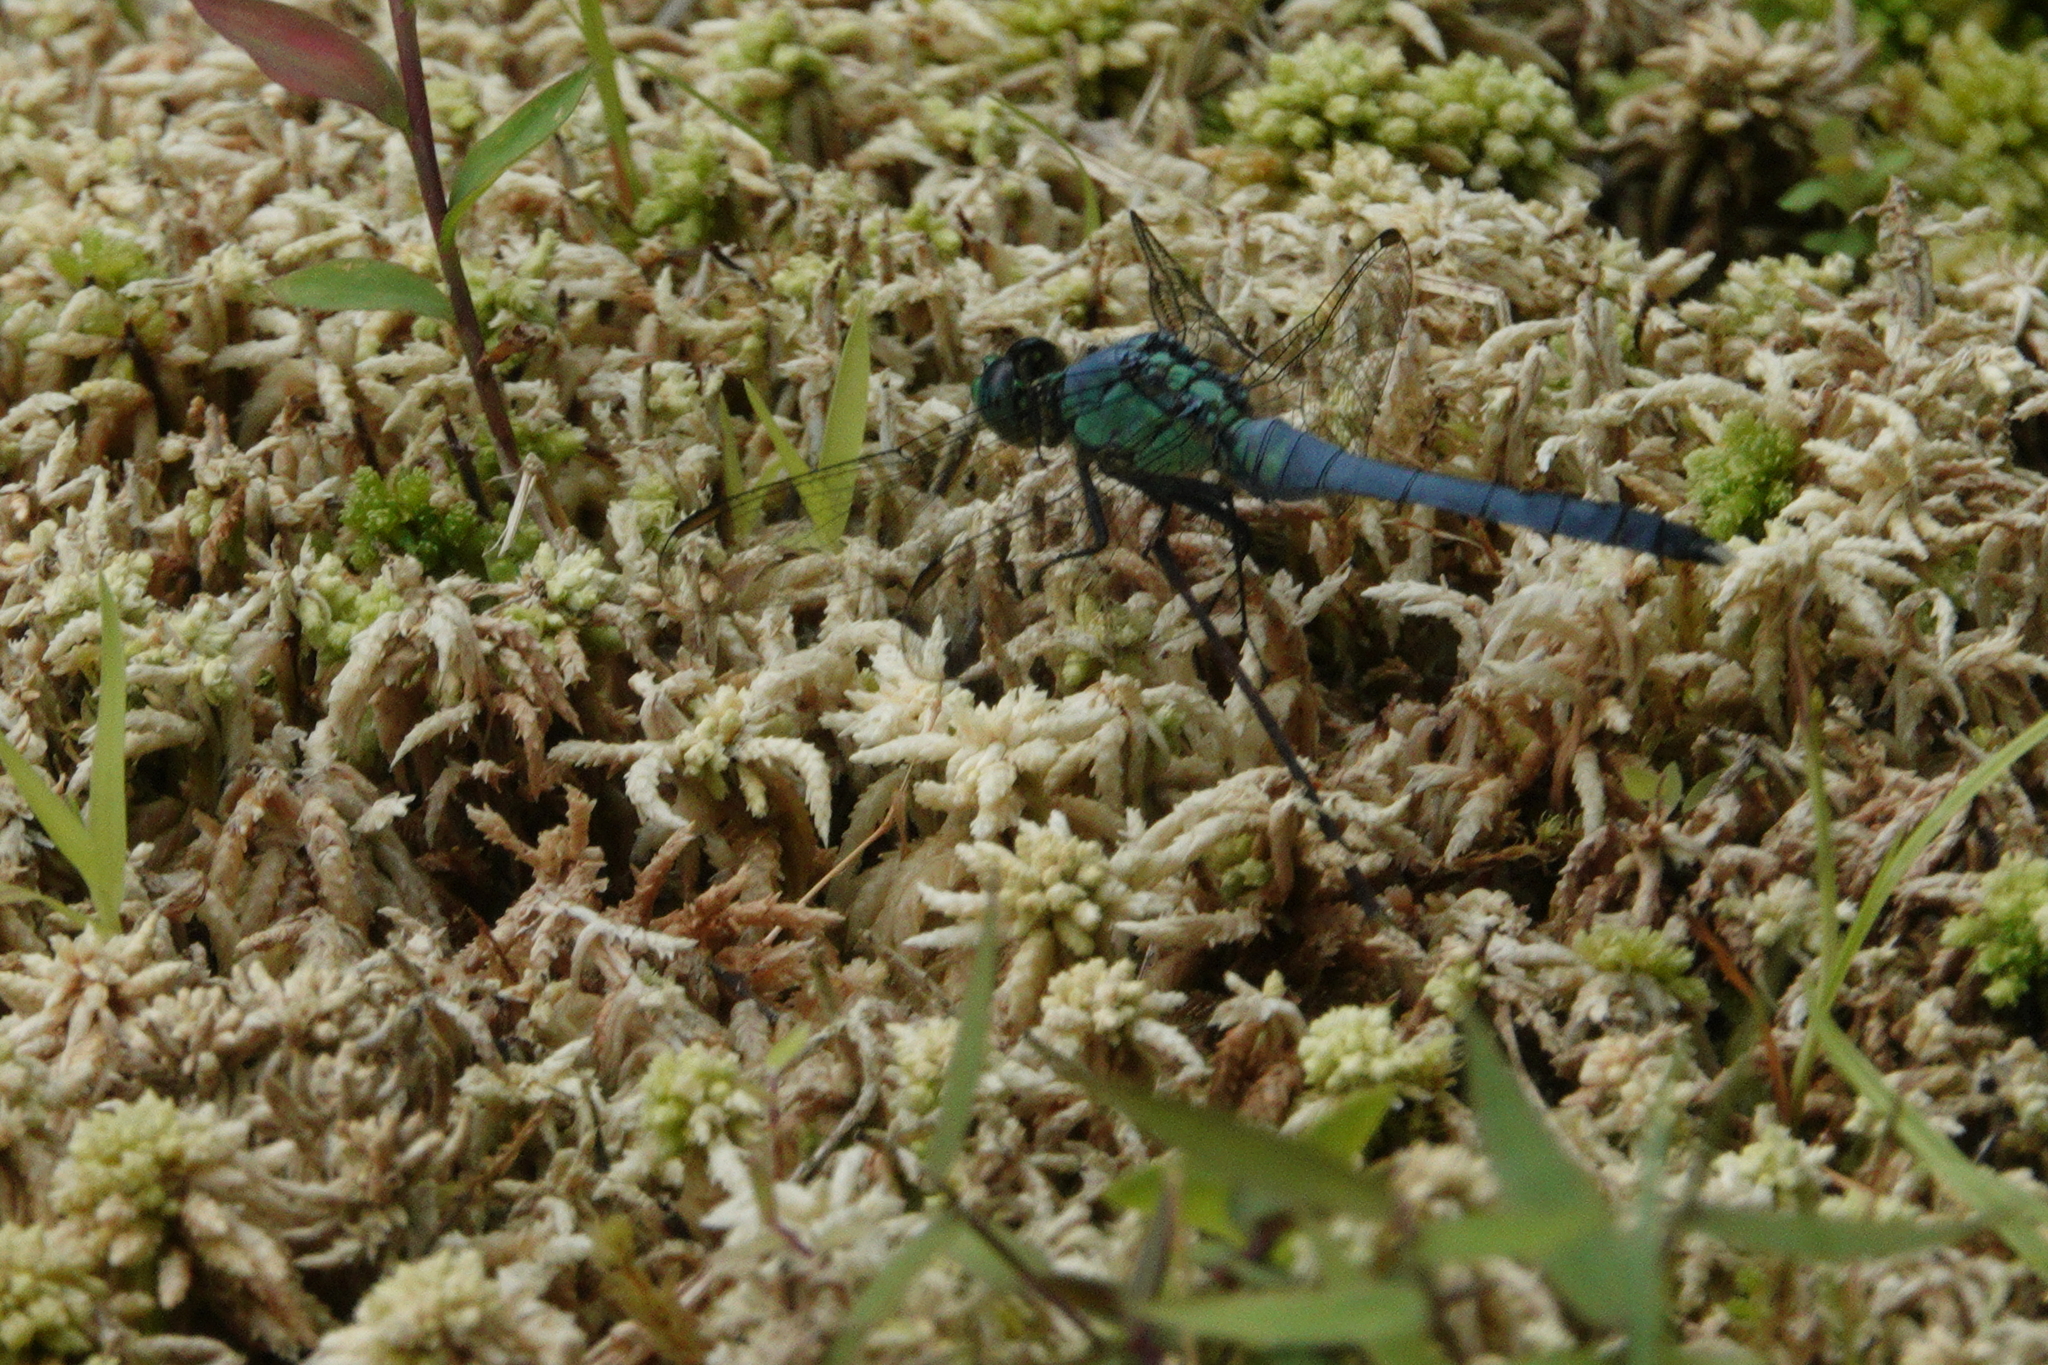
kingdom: Animalia
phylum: Arthropoda
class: Insecta
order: Odonata
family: Libellulidae
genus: Erythemis
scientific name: Erythemis simplicicollis
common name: Eastern pondhawk
